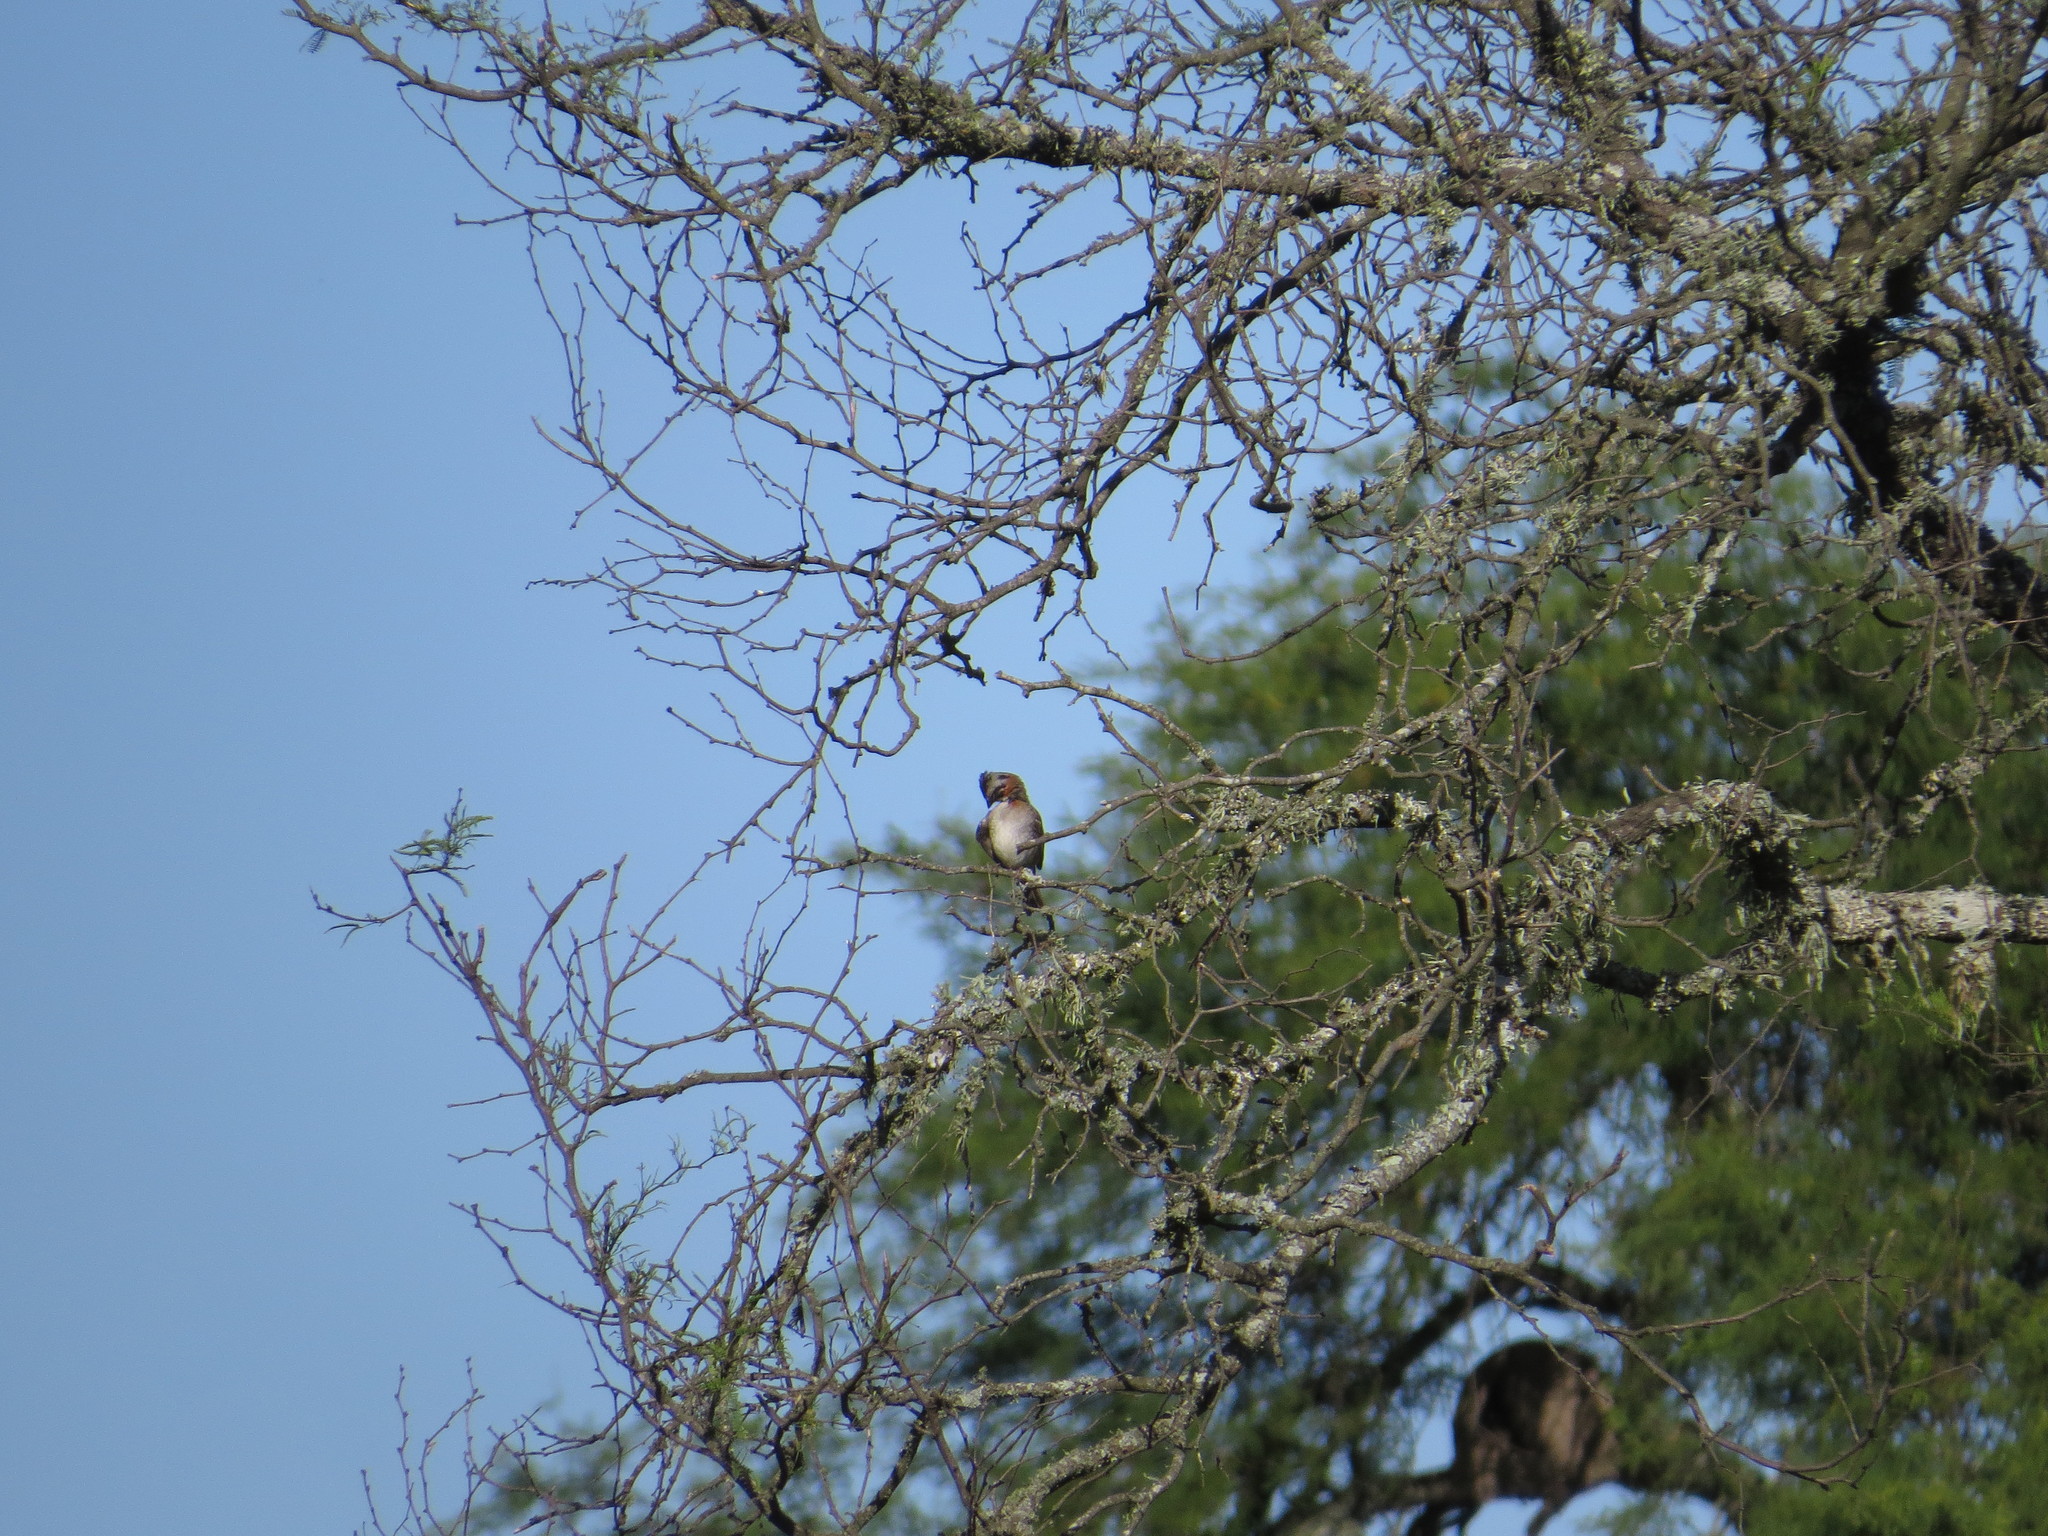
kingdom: Animalia
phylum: Chordata
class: Aves
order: Passeriformes
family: Passerellidae
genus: Zonotrichia
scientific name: Zonotrichia capensis
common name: Rufous-collared sparrow
